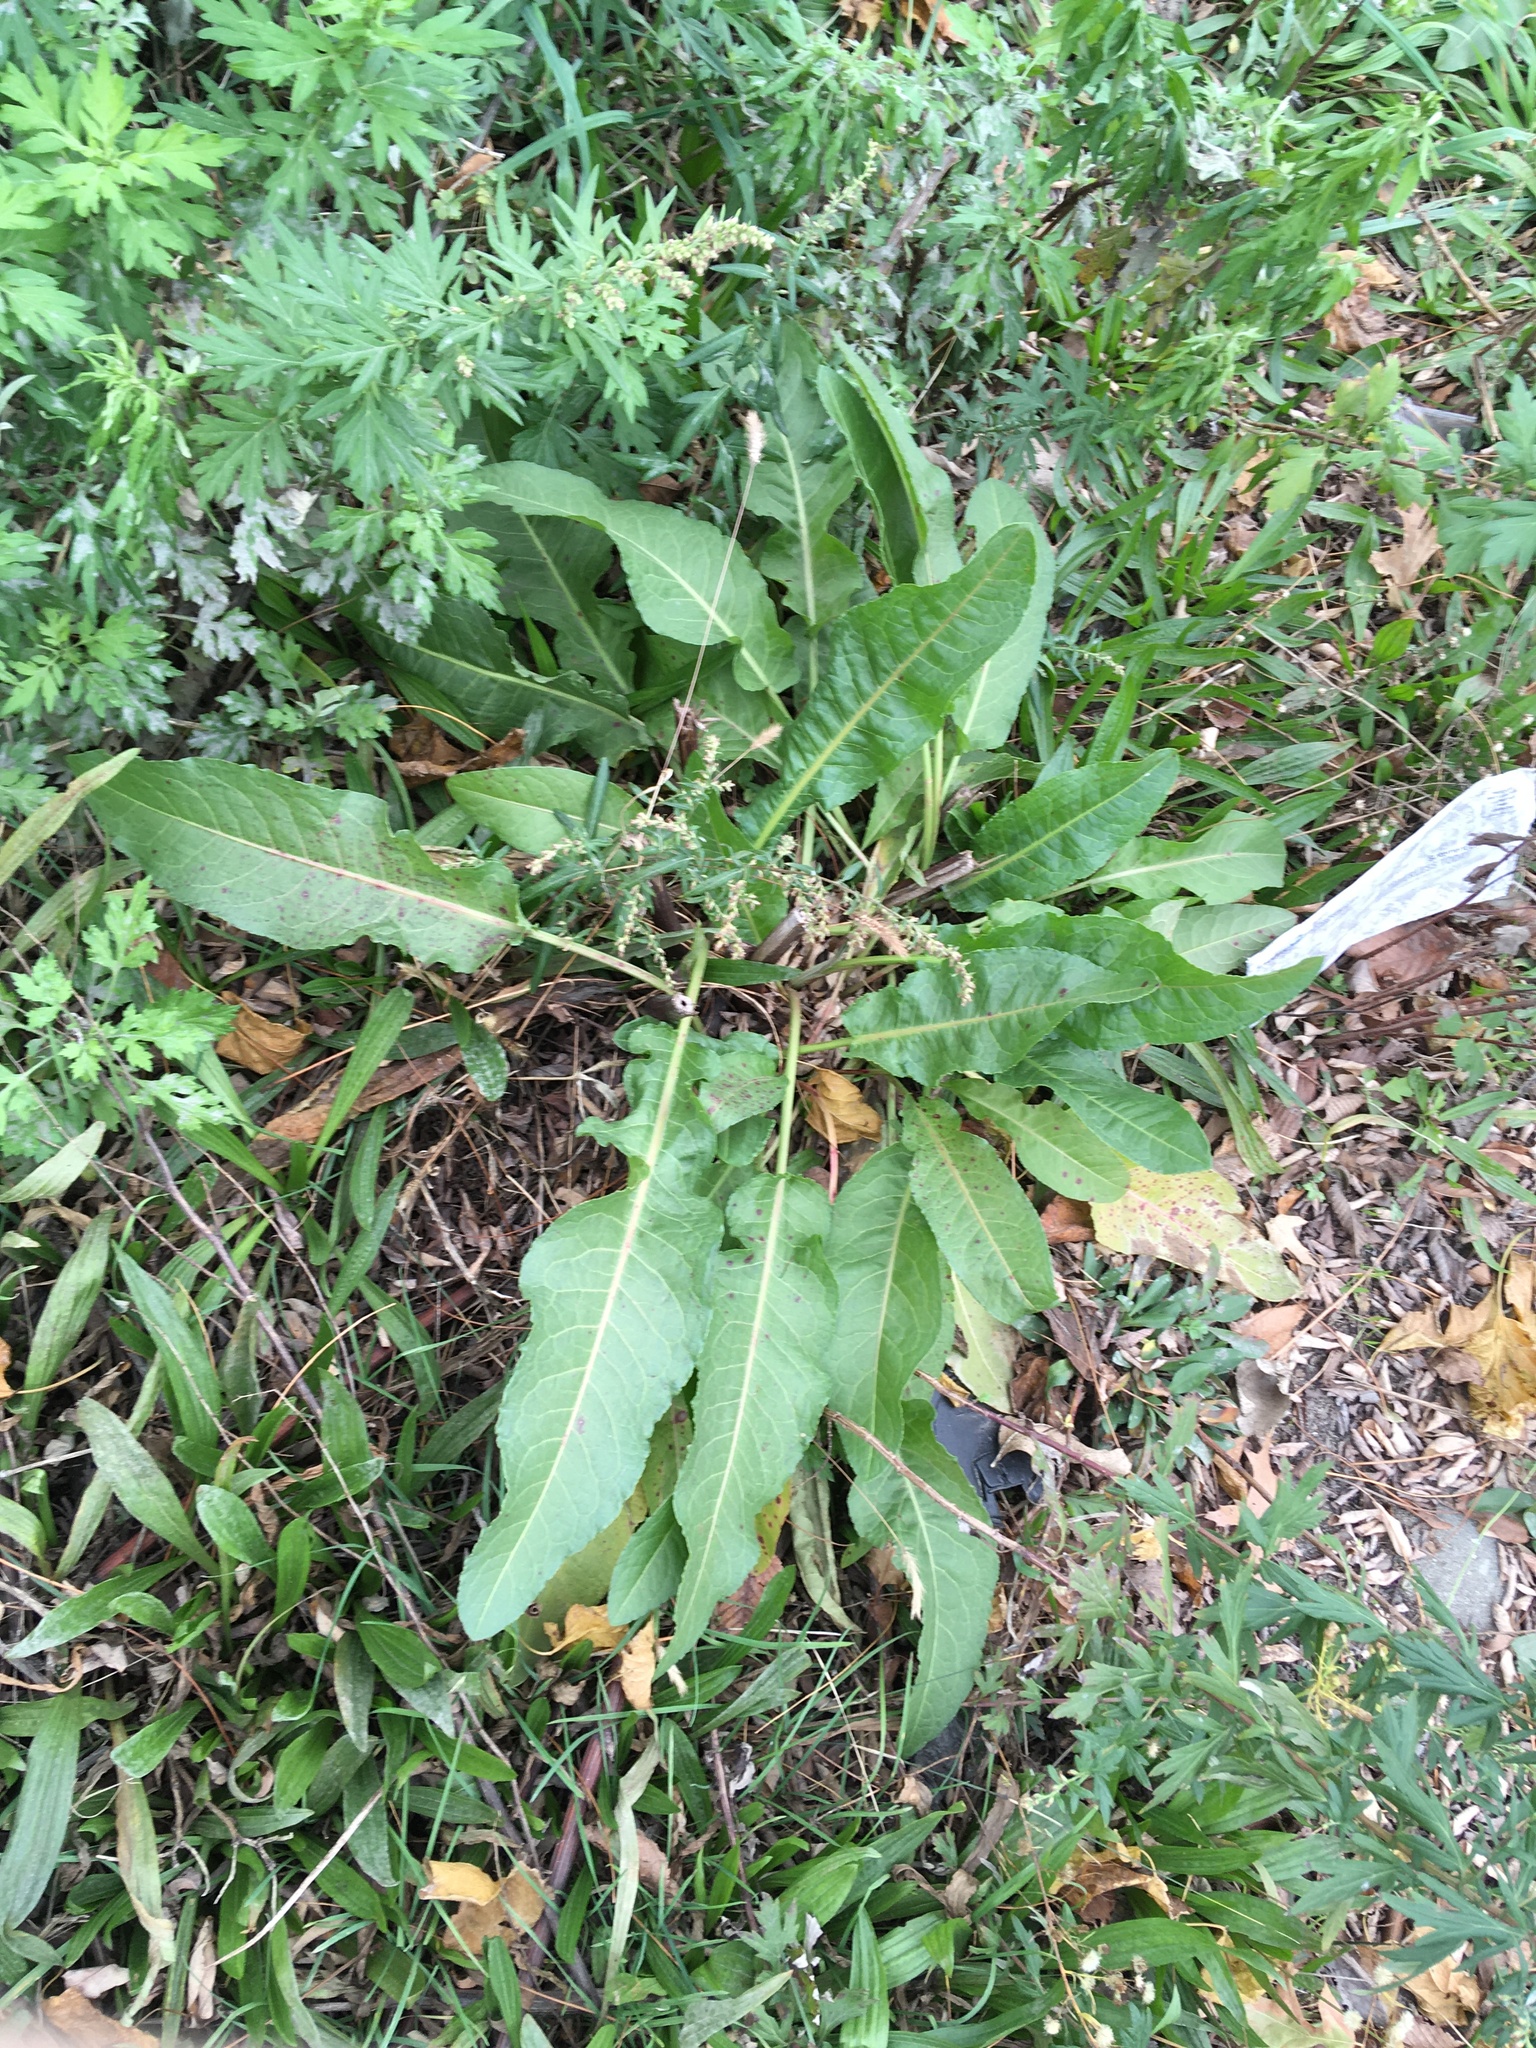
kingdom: Plantae
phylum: Tracheophyta
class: Magnoliopsida
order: Caryophyllales
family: Polygonaceae
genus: Rumex
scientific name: Rumex crispus
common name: Curled dock
